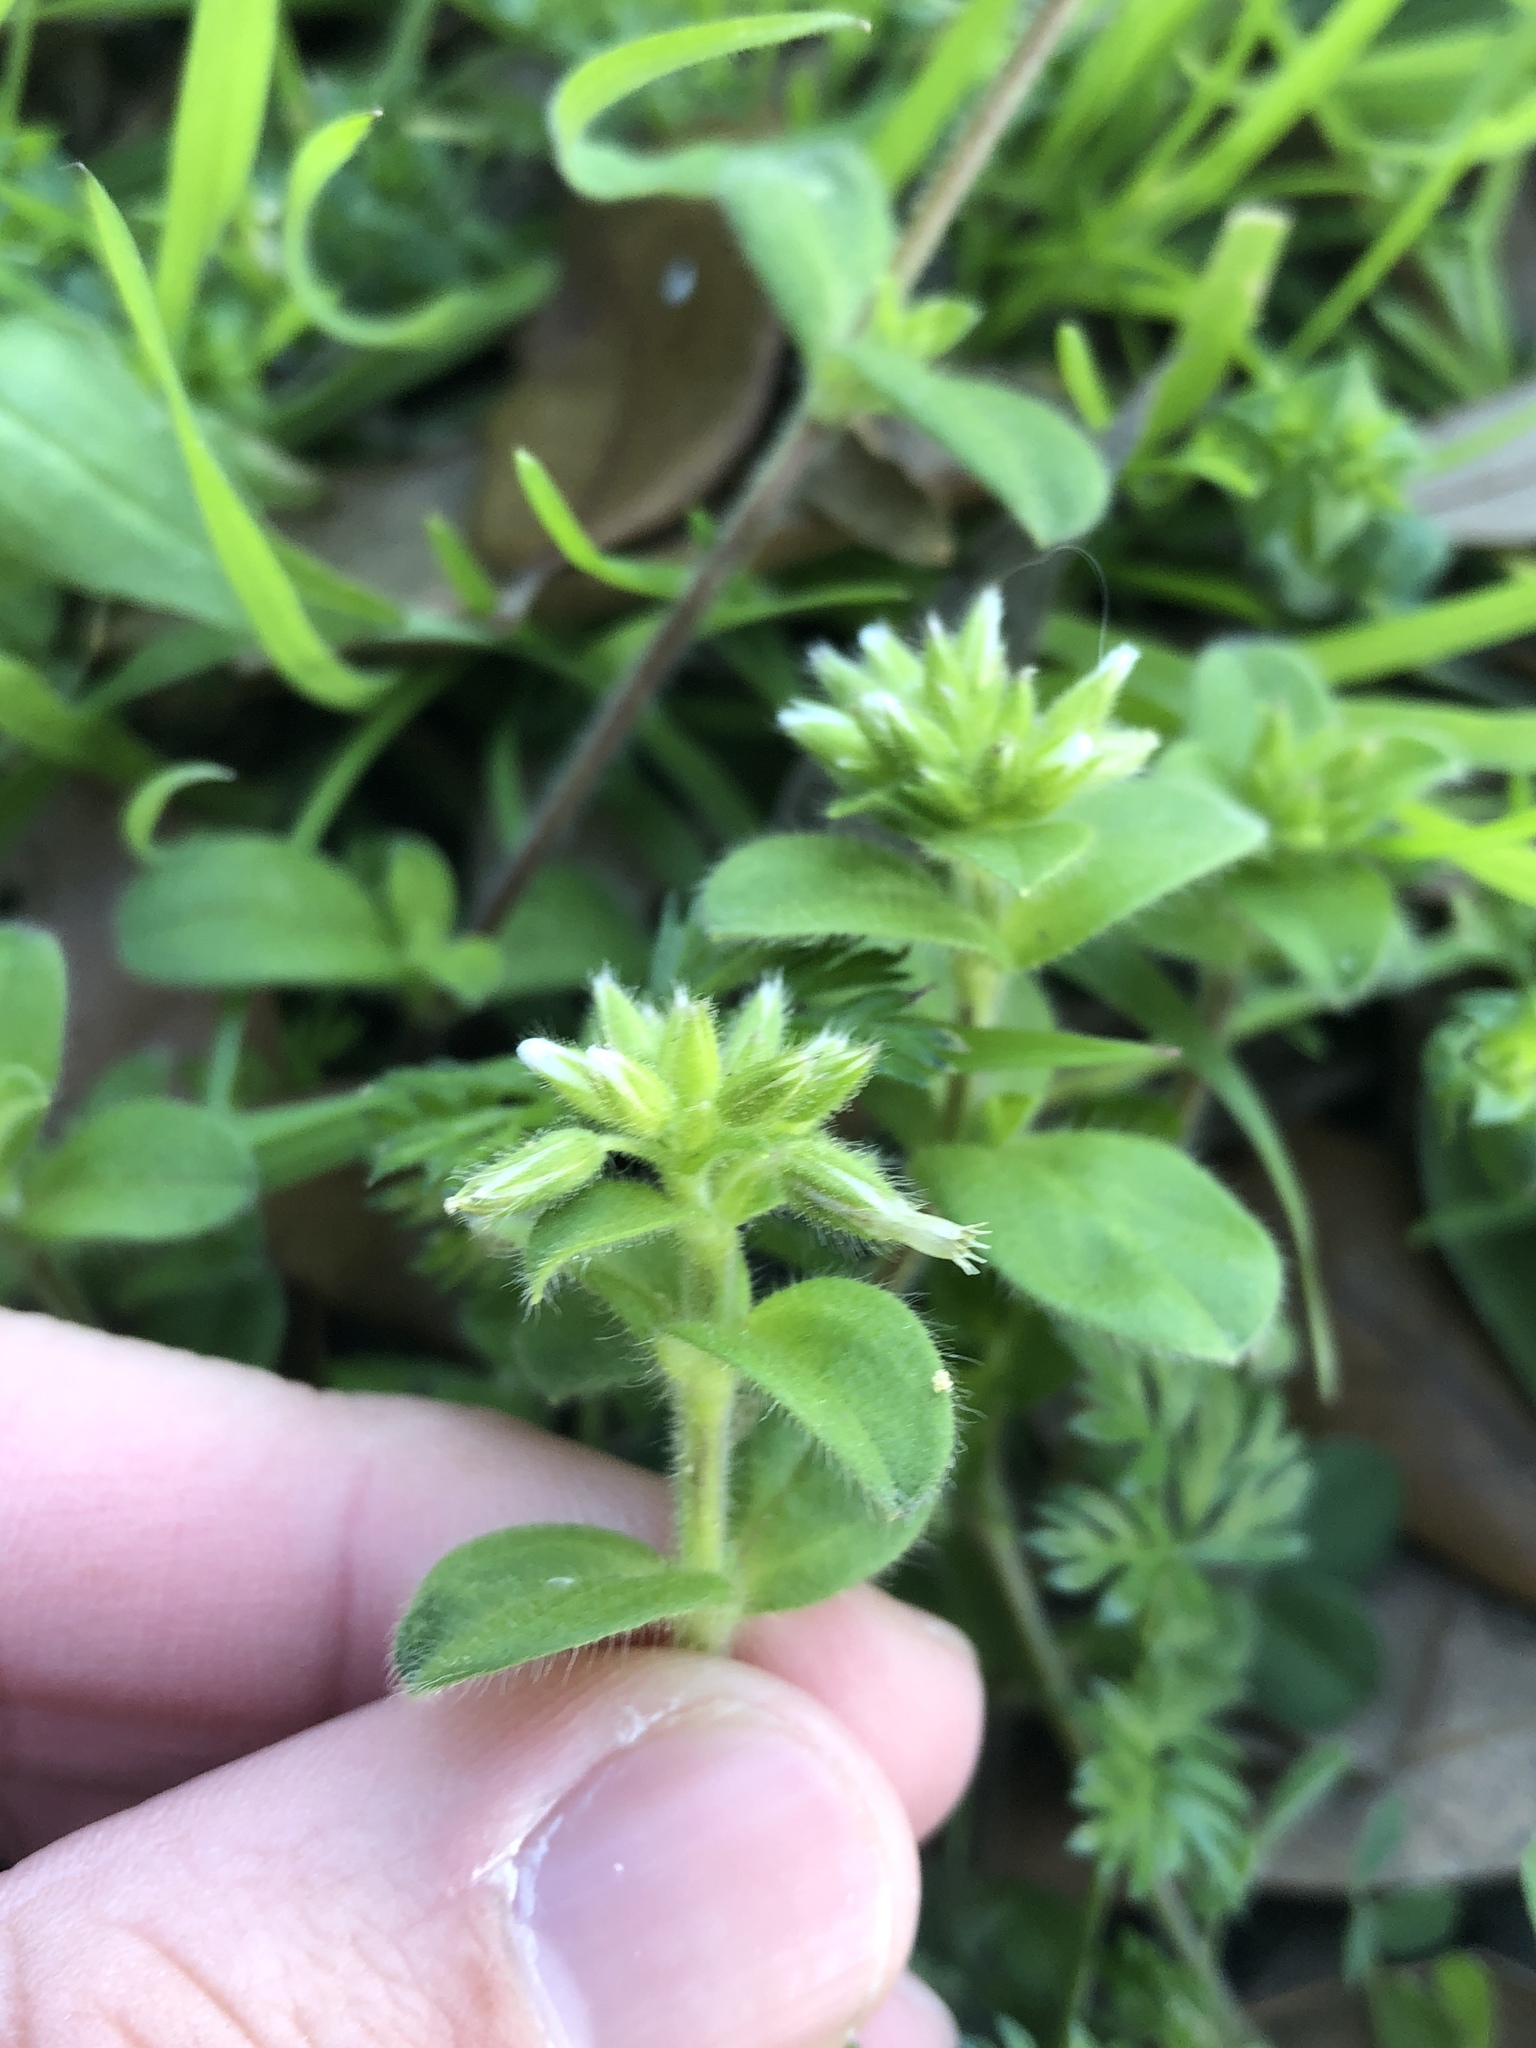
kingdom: Plantae
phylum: Tracheophyta
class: Magnoliopsida
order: Caryophyllales
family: Caryophyllaceae
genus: Cerastium
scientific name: Cerastium glomeratum
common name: Sticky chickweed
